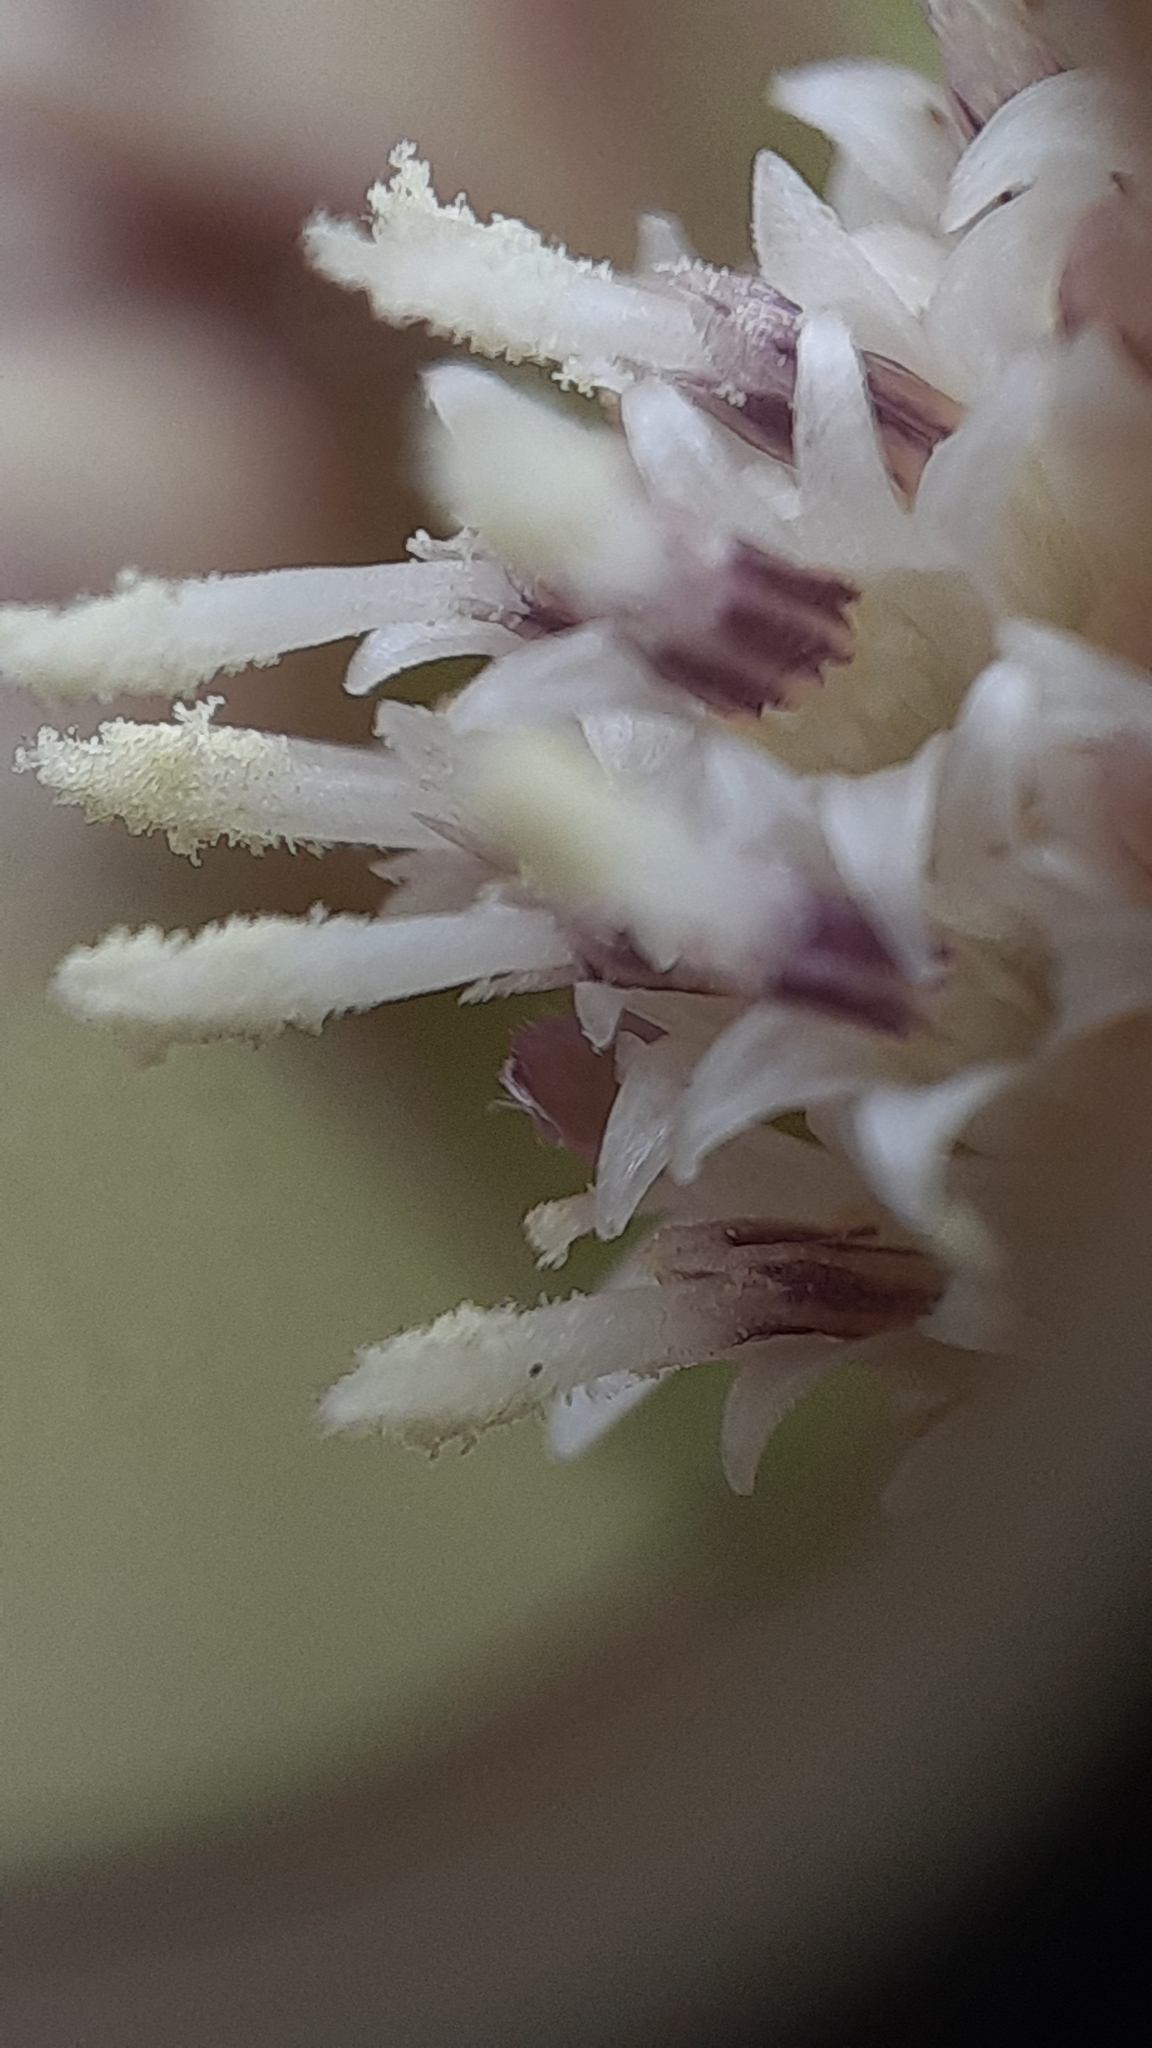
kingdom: Plantae
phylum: Tracheophyta
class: Magnoliopsida
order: Asterales
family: Asteraceae
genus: Petasites
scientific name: Petasites frigidus
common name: Arctic butterbur
